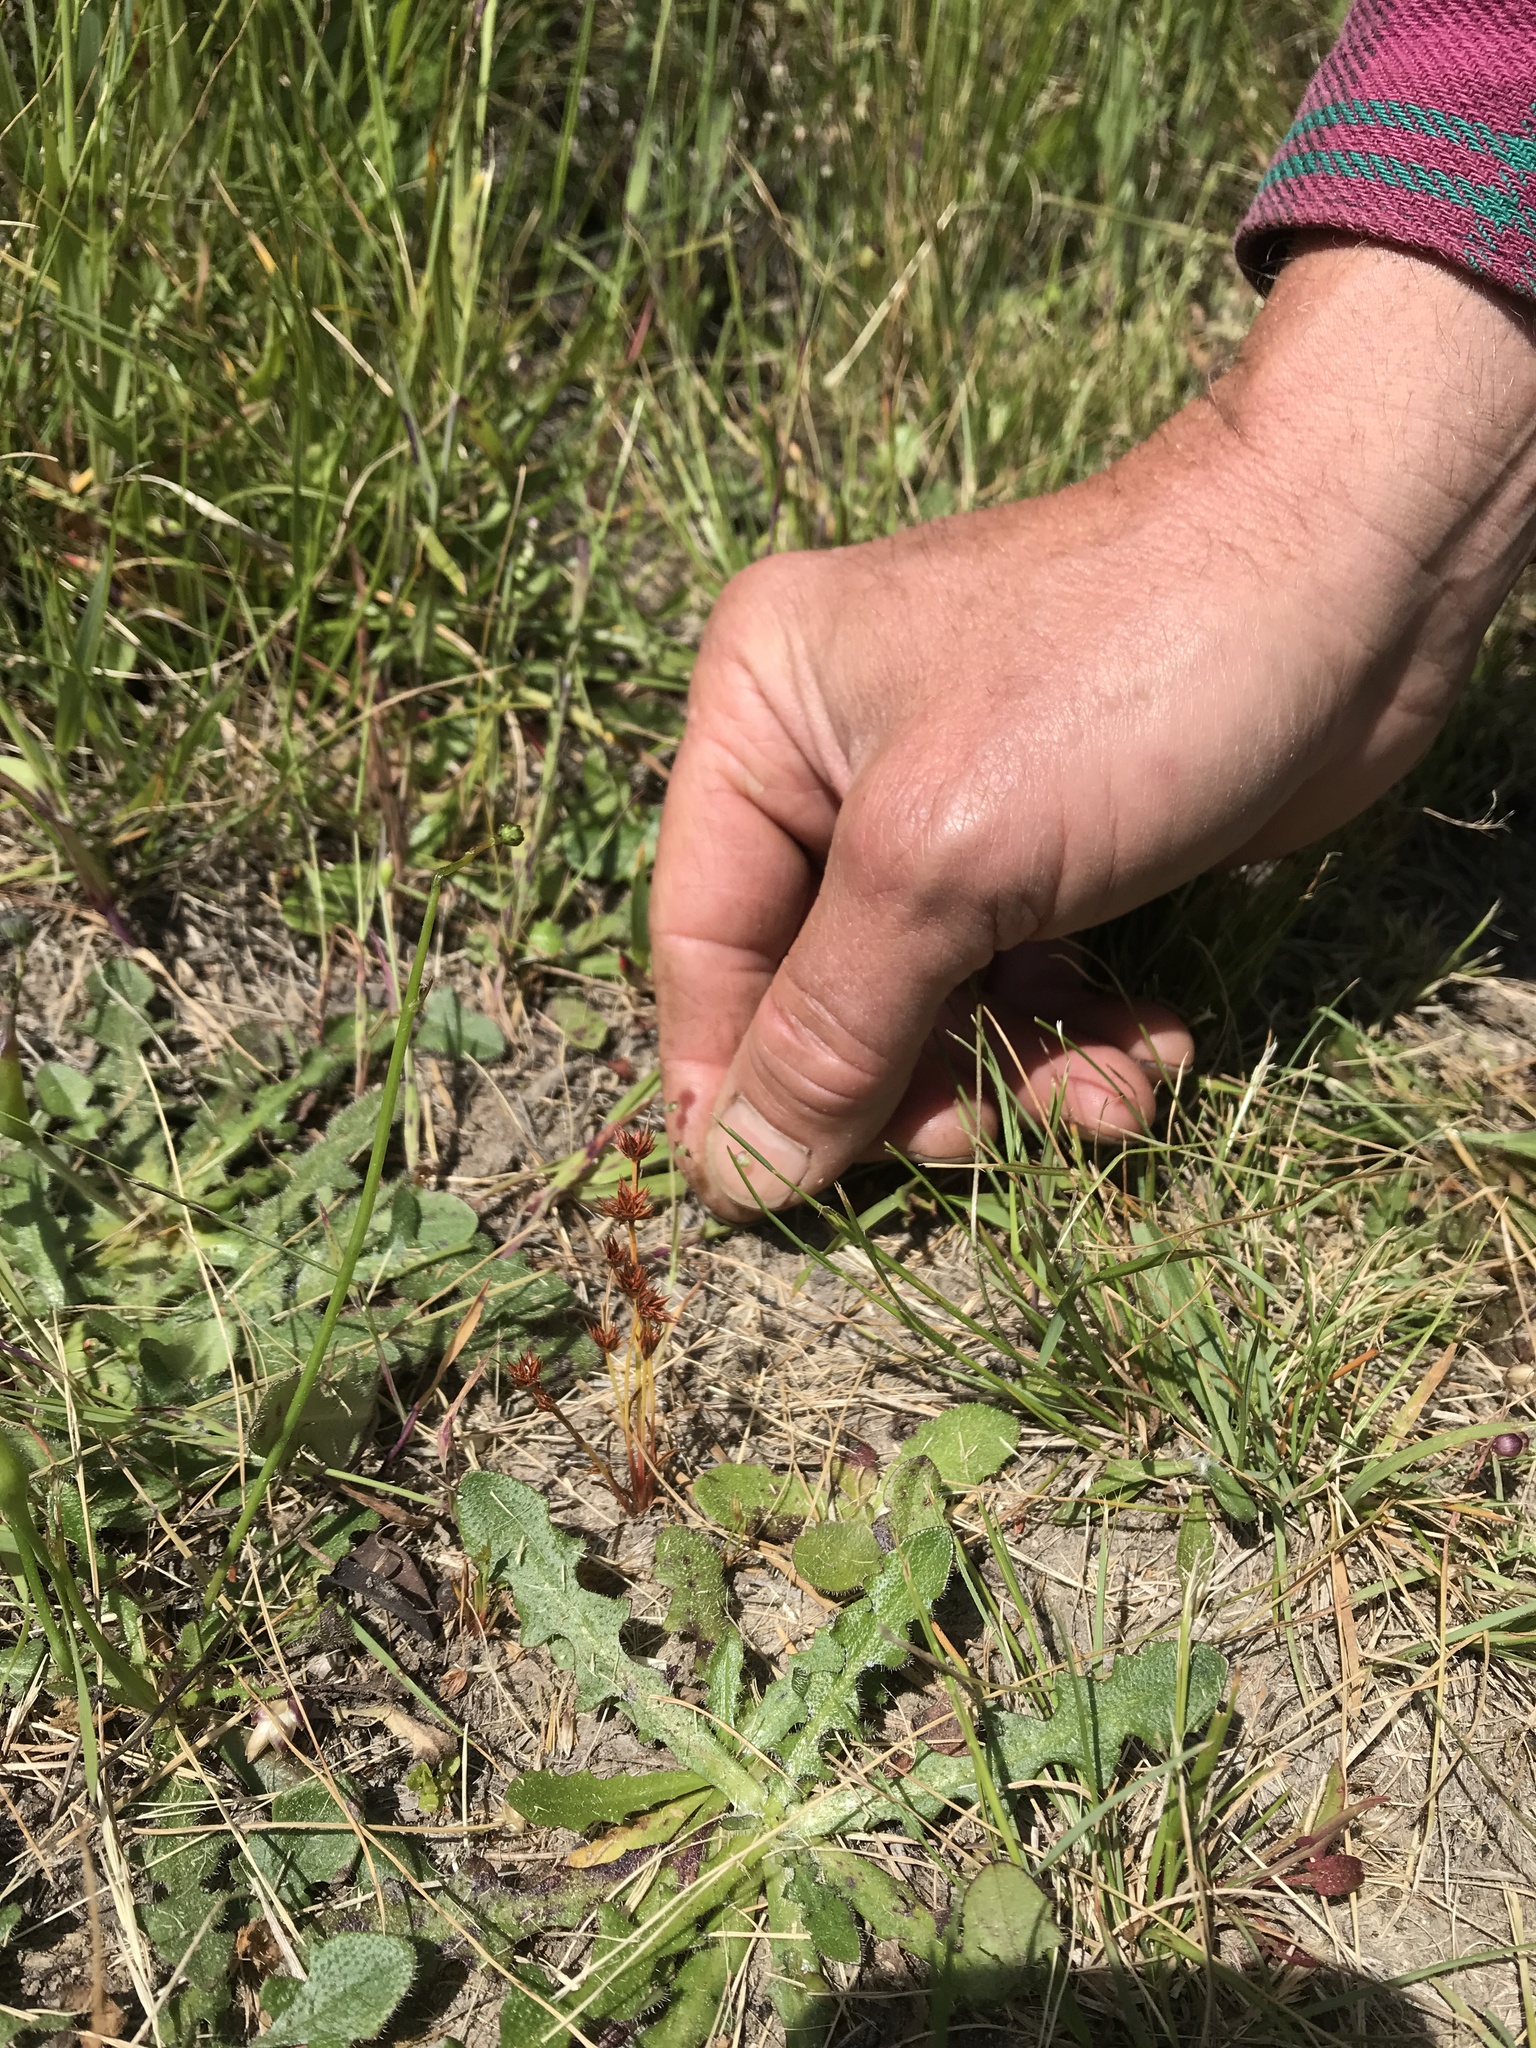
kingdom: Plantae
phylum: Tracheophyta
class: Liliopsida
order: Poales
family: Juncaceae
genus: Juncus
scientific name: Juncus capitatus
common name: Dwarf rush
